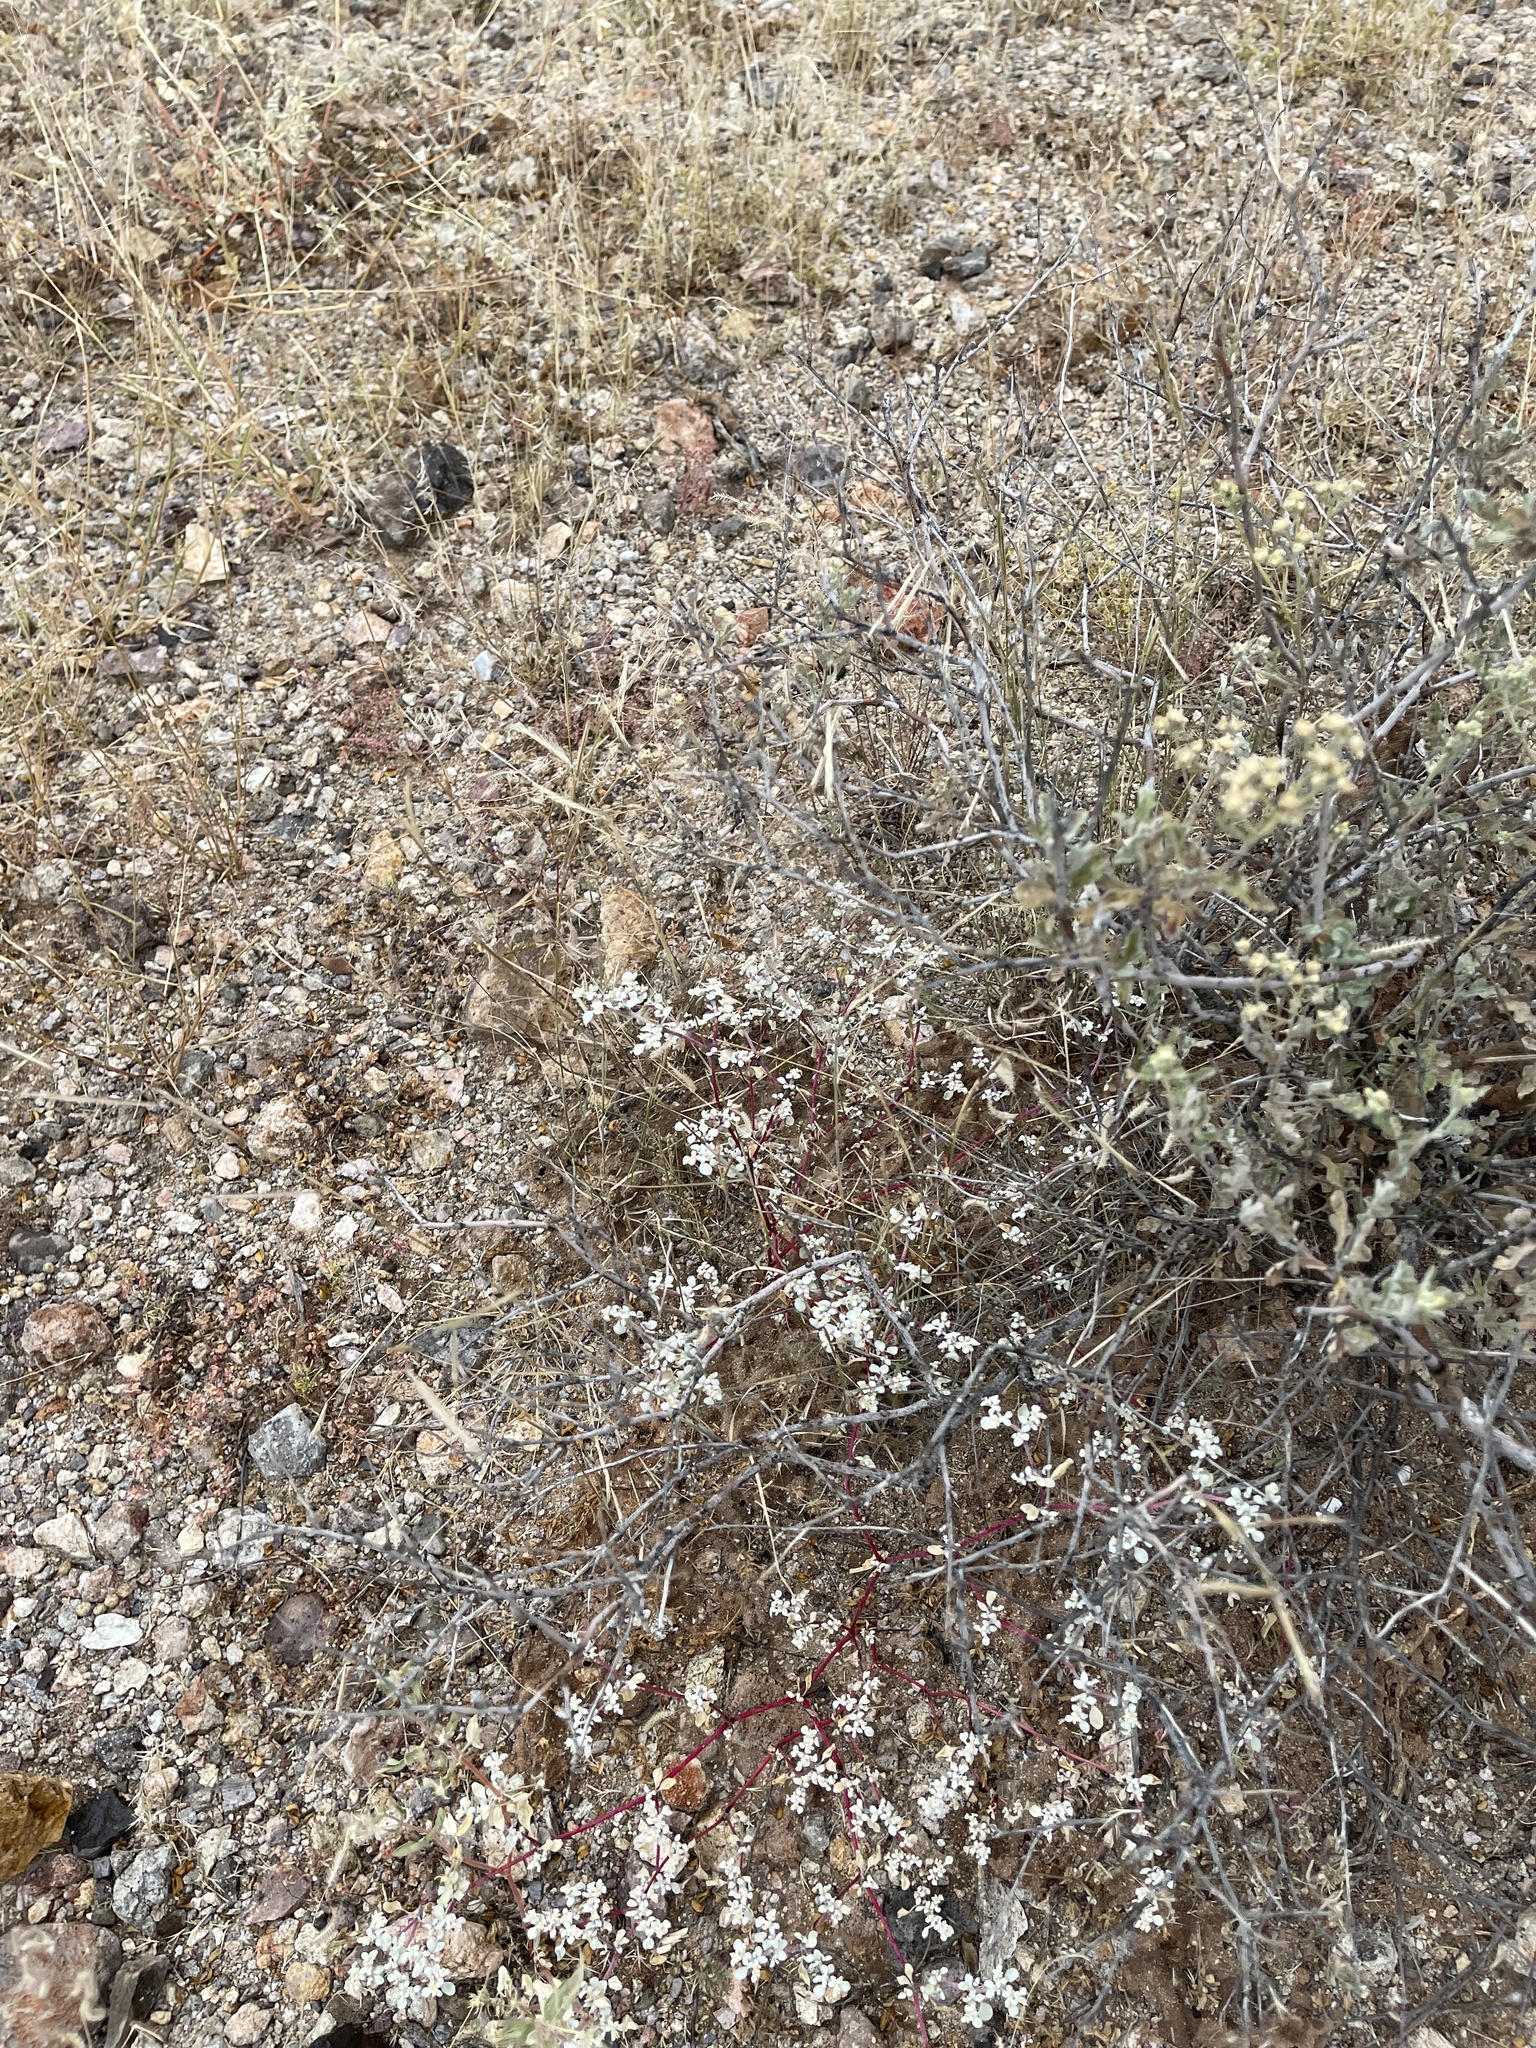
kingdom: Plantae
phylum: Tracheophyta
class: Magnoliopsida
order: Caryophyllales
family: Amaranthaceae
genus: Tidestromia
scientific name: Tidestromia lanuginosa
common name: Woolly tidestromia
